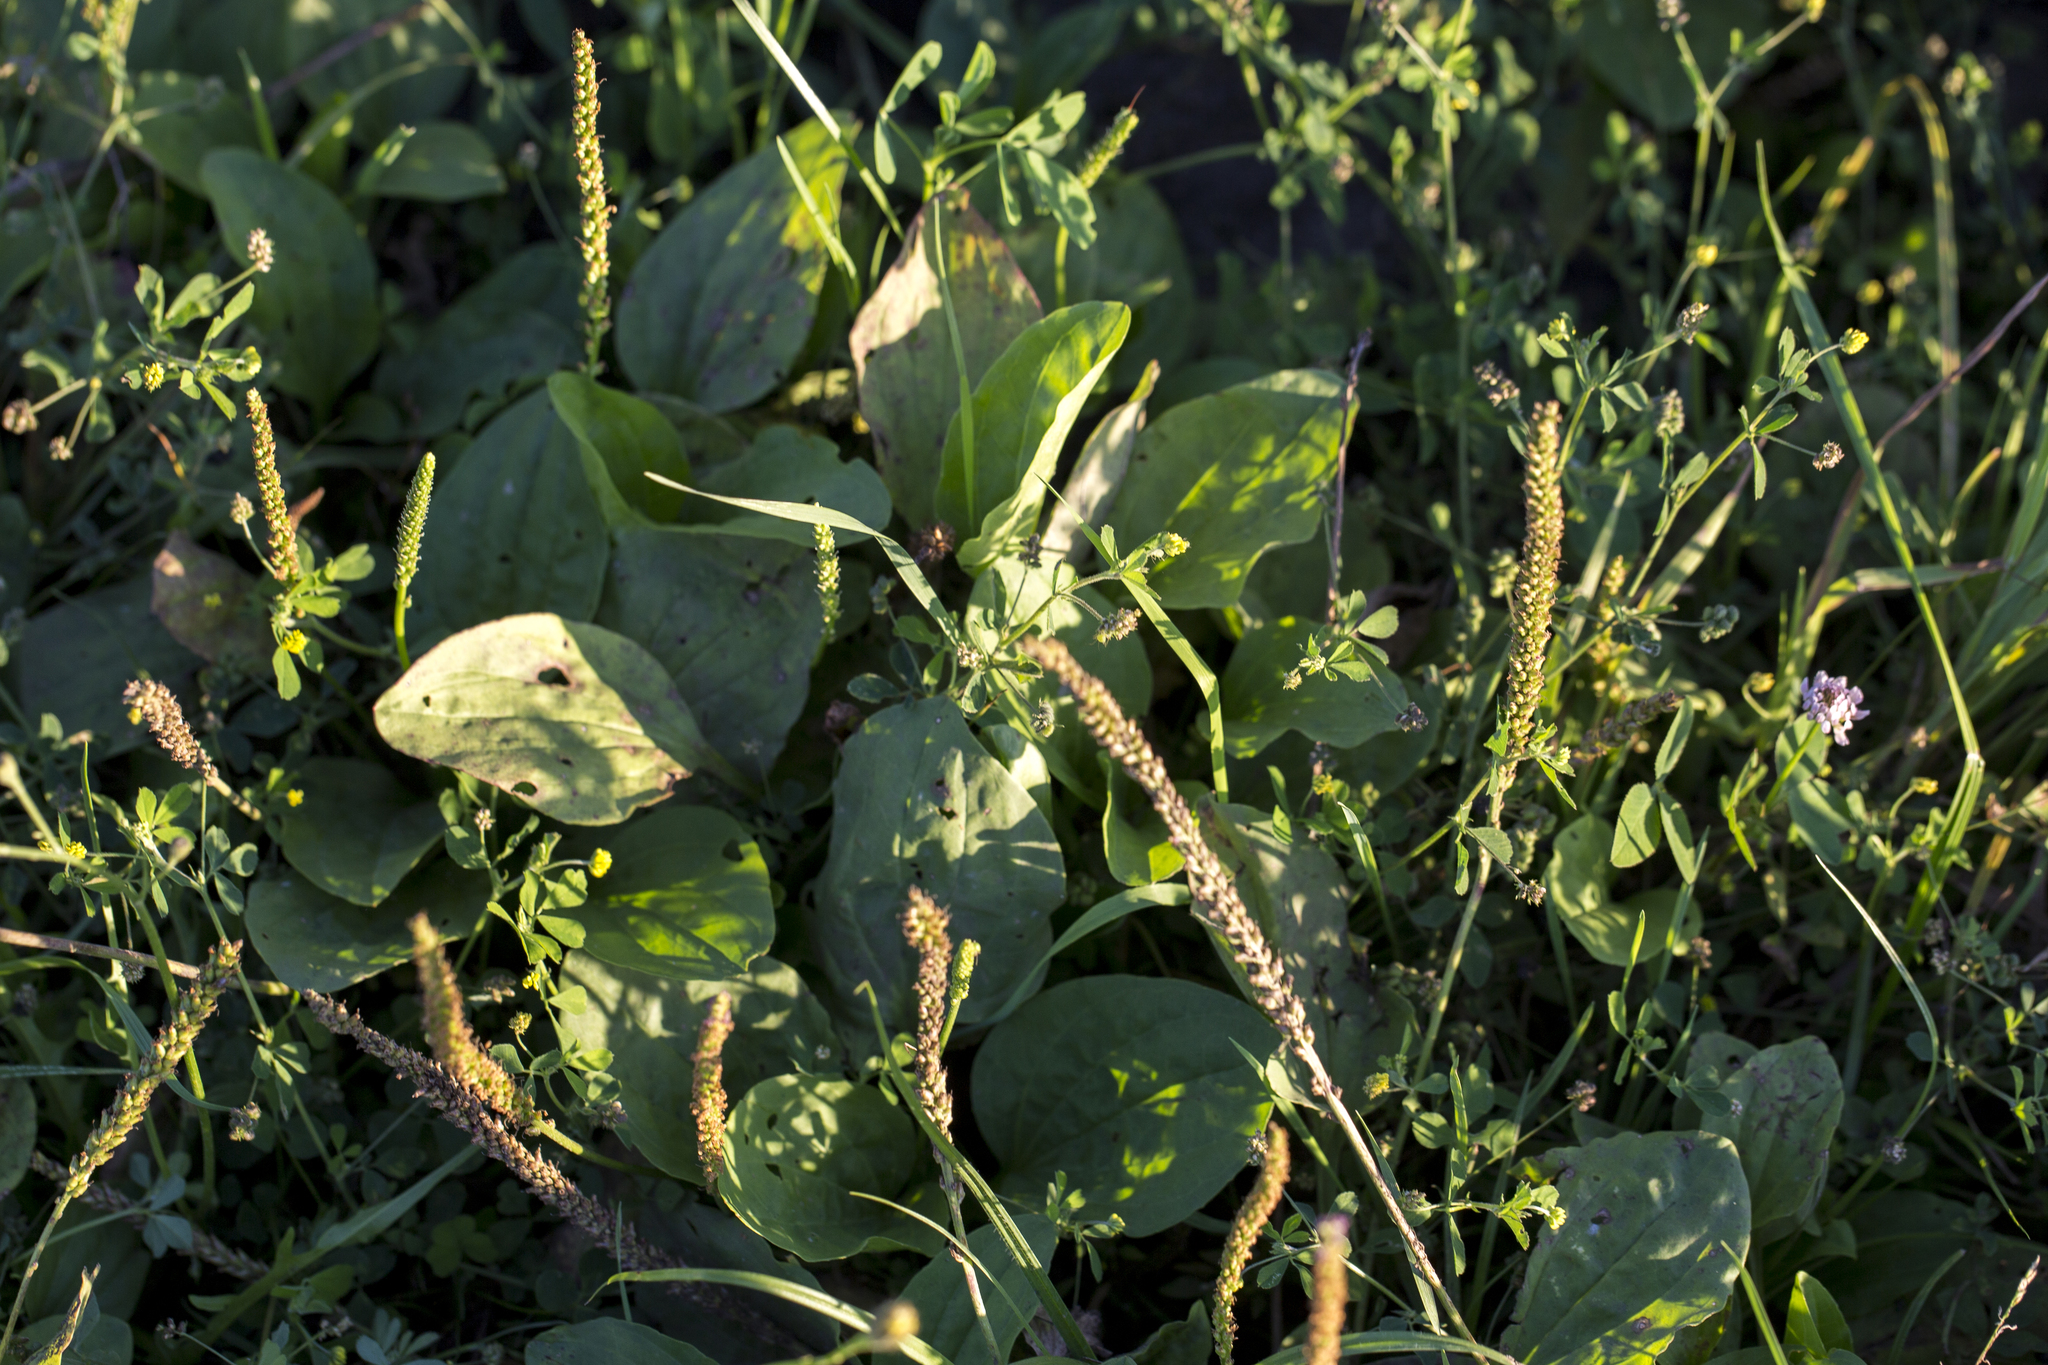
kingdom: Plantae
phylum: Tracheophyta
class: Magnoliopsida
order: Lamiales
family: Plantaginaceae
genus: Plantago
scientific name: Plantago major
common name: Common plantain
